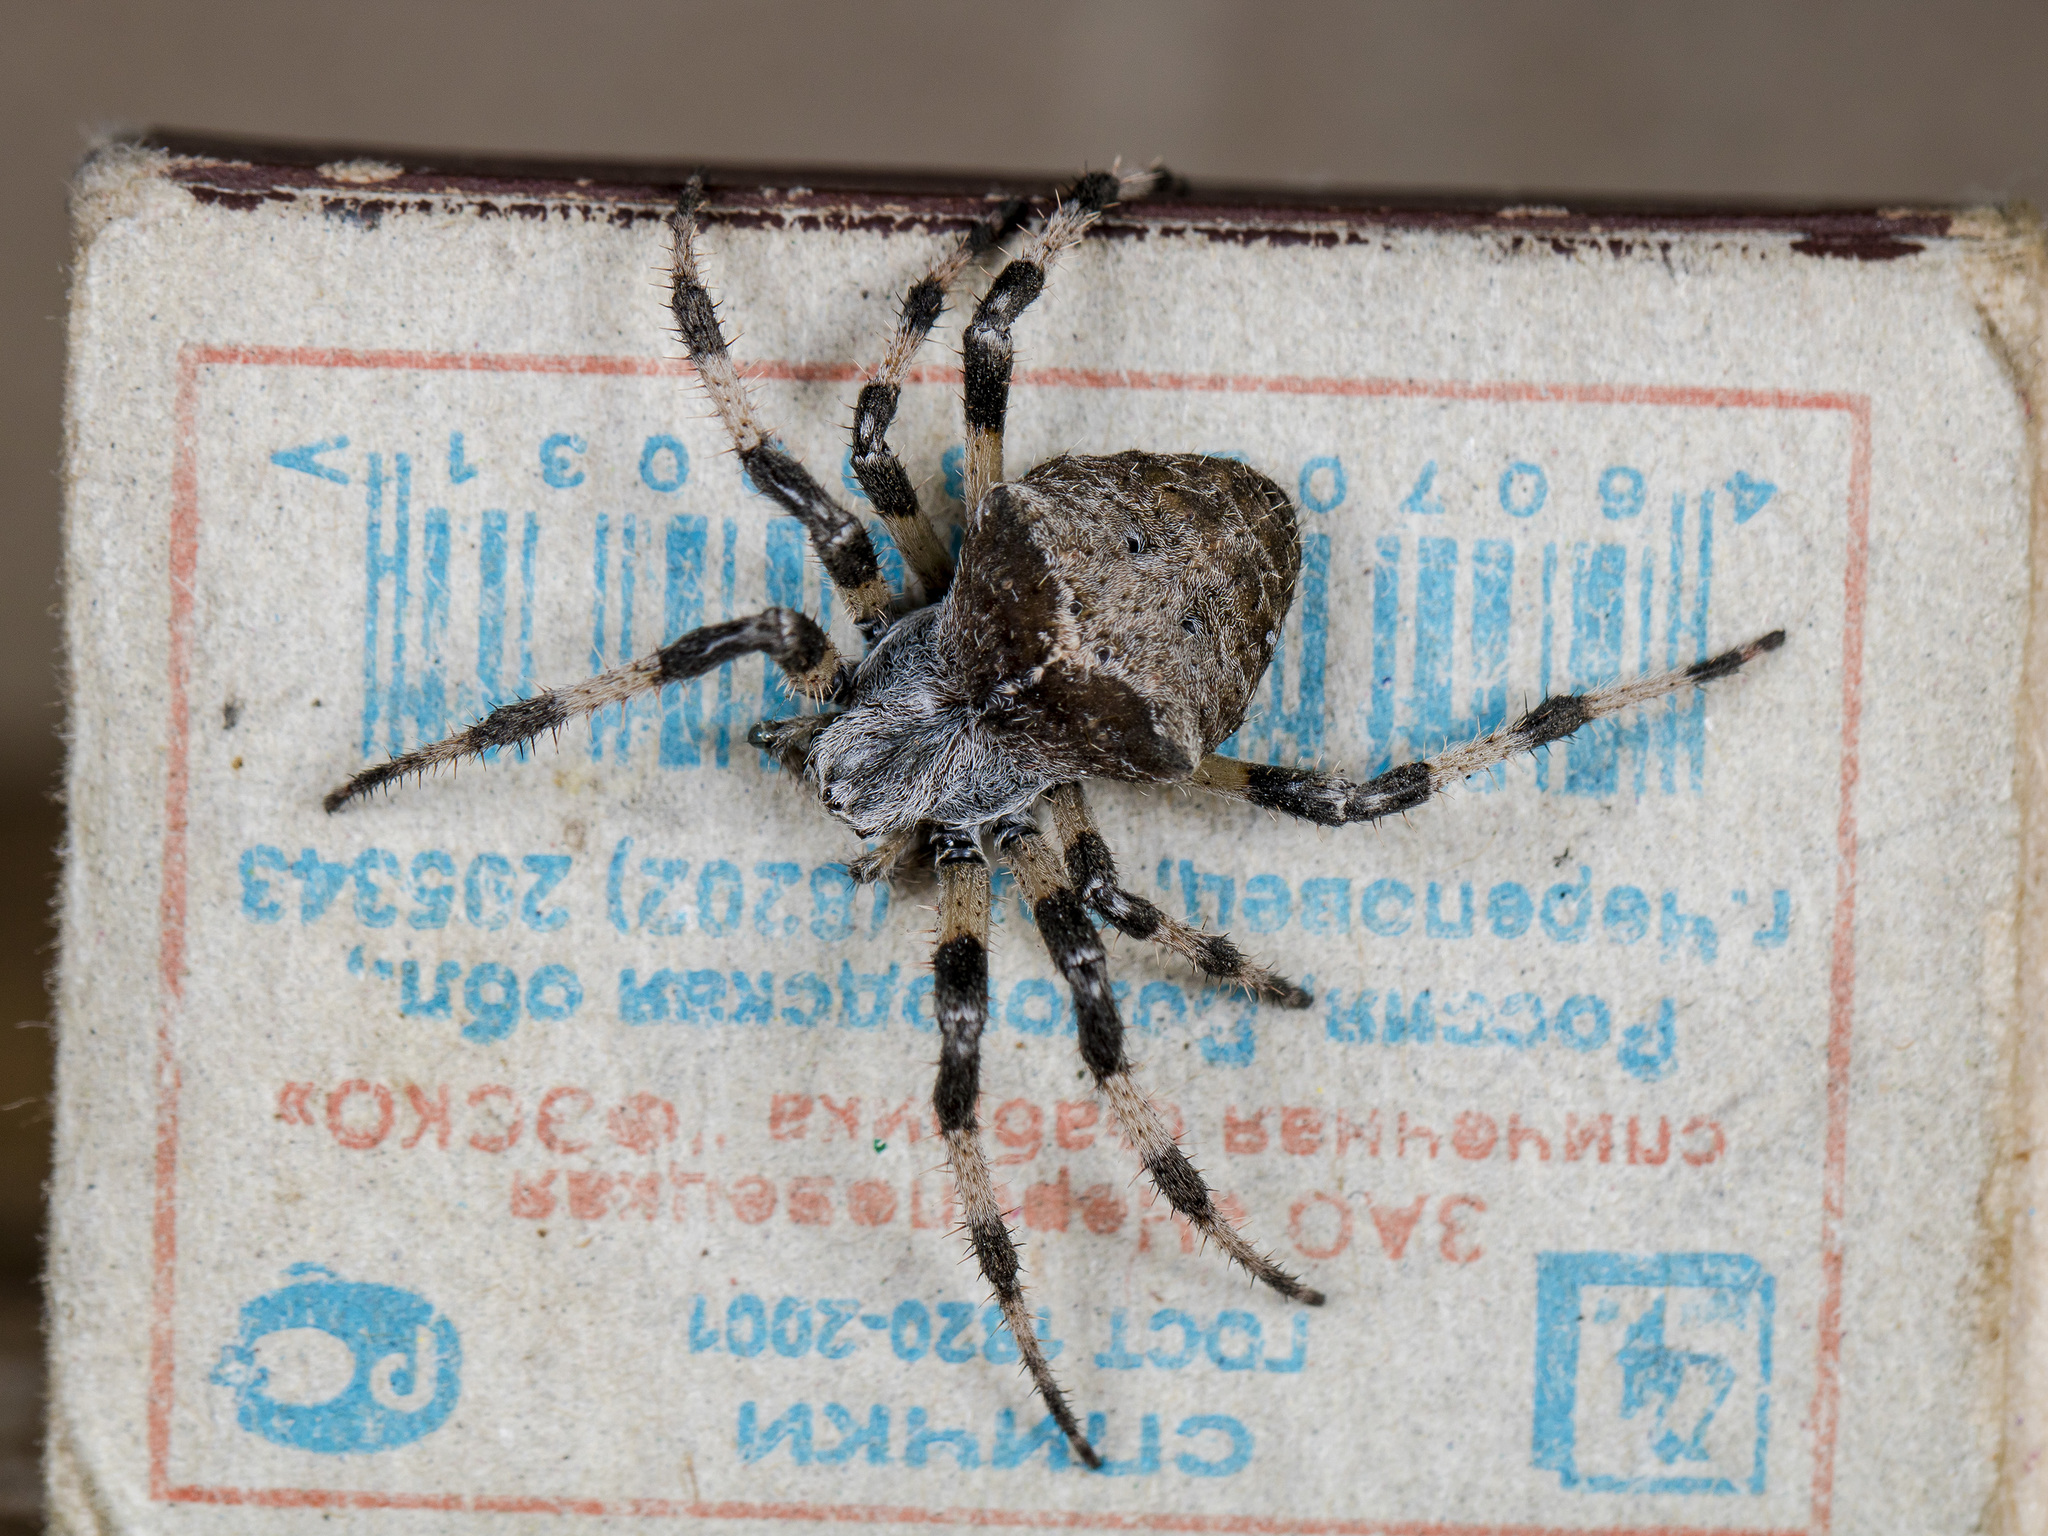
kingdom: Animalia
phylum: Arthropoda
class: Arachnida
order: Araneae
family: Araneidae
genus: Araneus
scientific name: Araneus tartaricus
